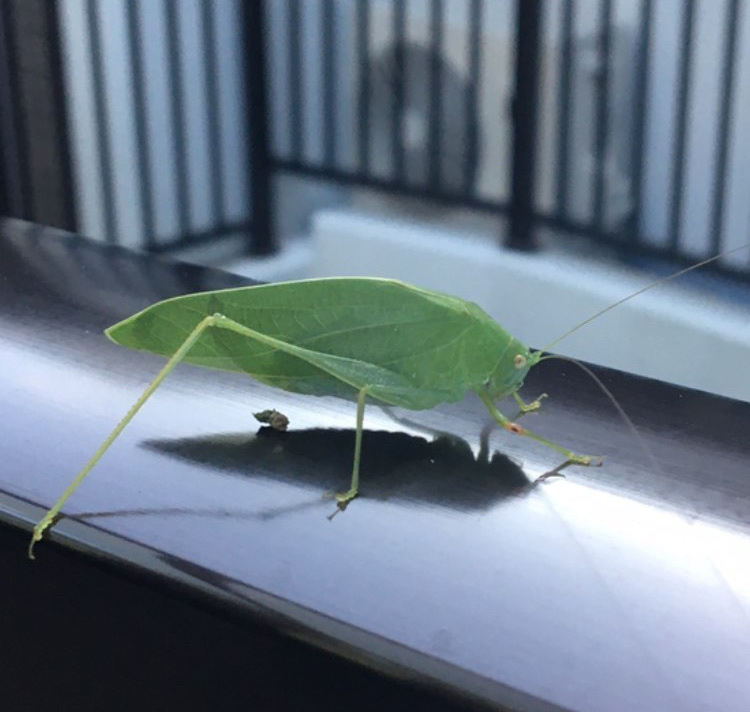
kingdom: Animalia
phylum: Arthropoda
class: Insecta
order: Orthoptera
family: Tettigoniidae
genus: Phaulula
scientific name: Phaulula macilenta
